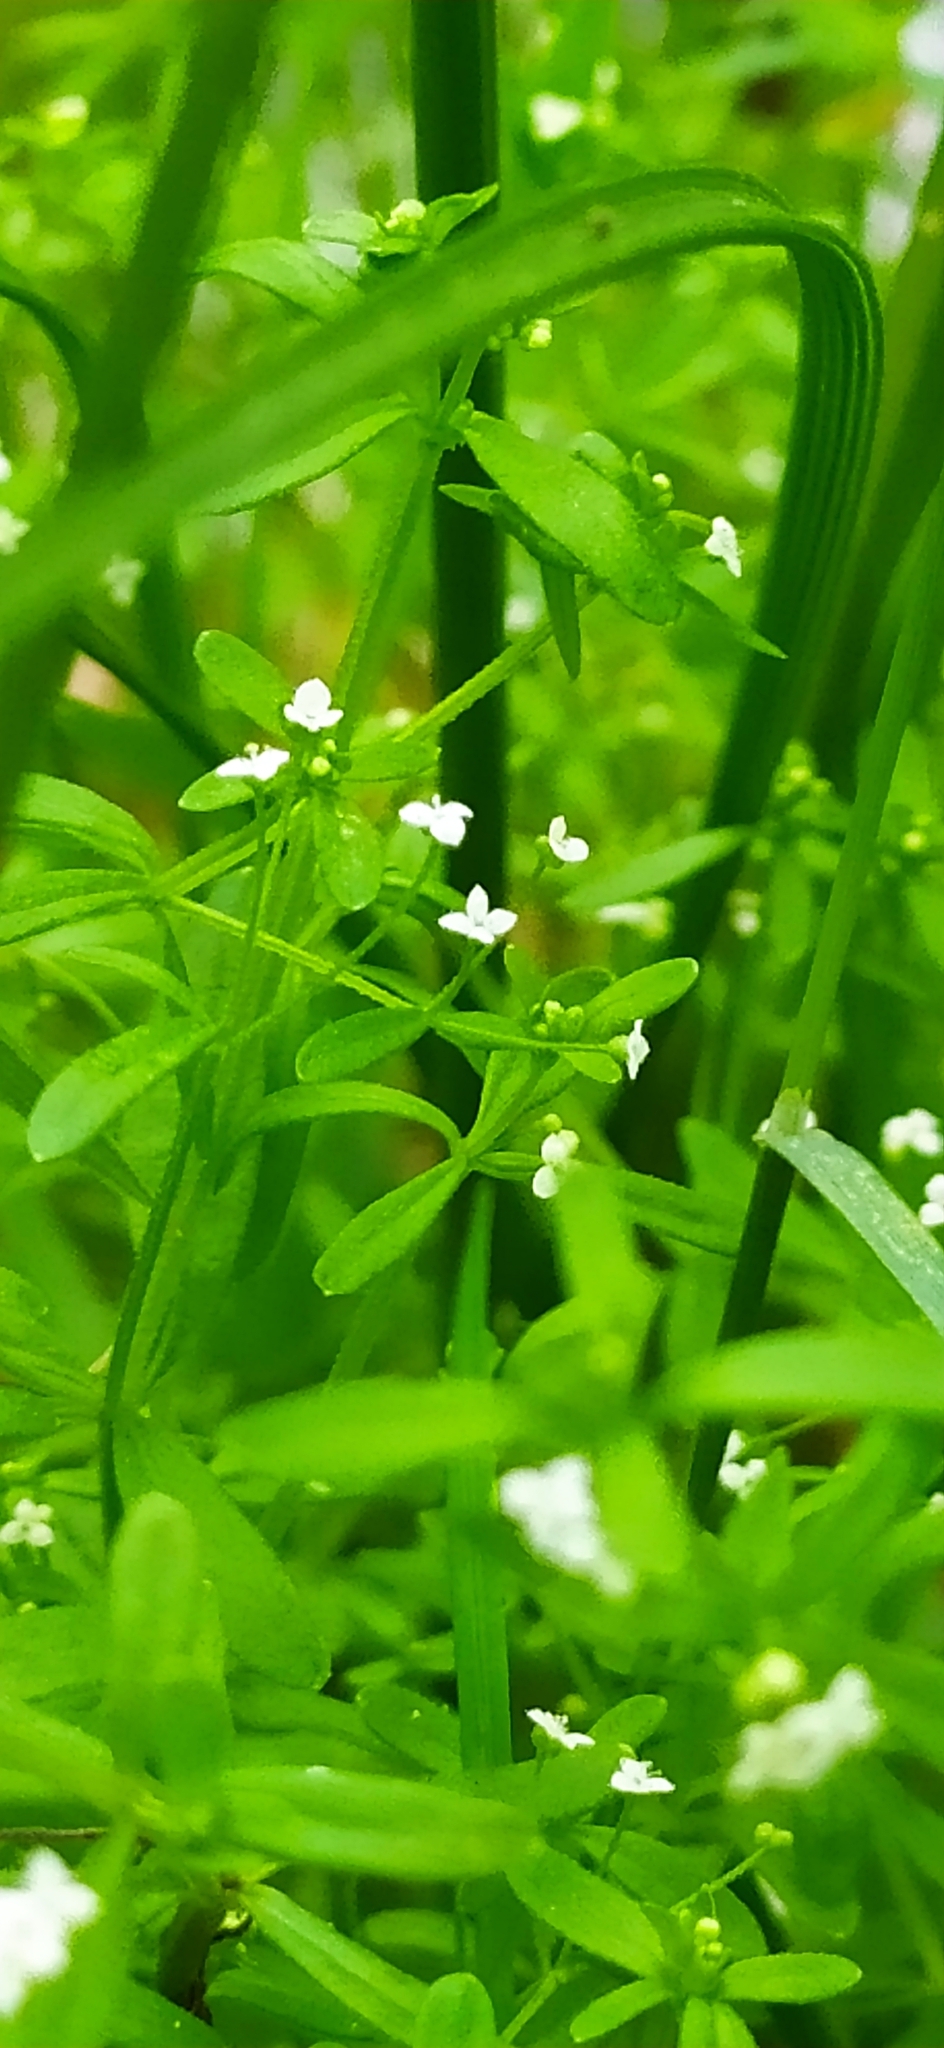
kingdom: Plantae
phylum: Tracheophyta
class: Magnoliopsida
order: Gentianales
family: Rubiaceae
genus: Galium
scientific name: Galium trifidum
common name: Small bedstraw
